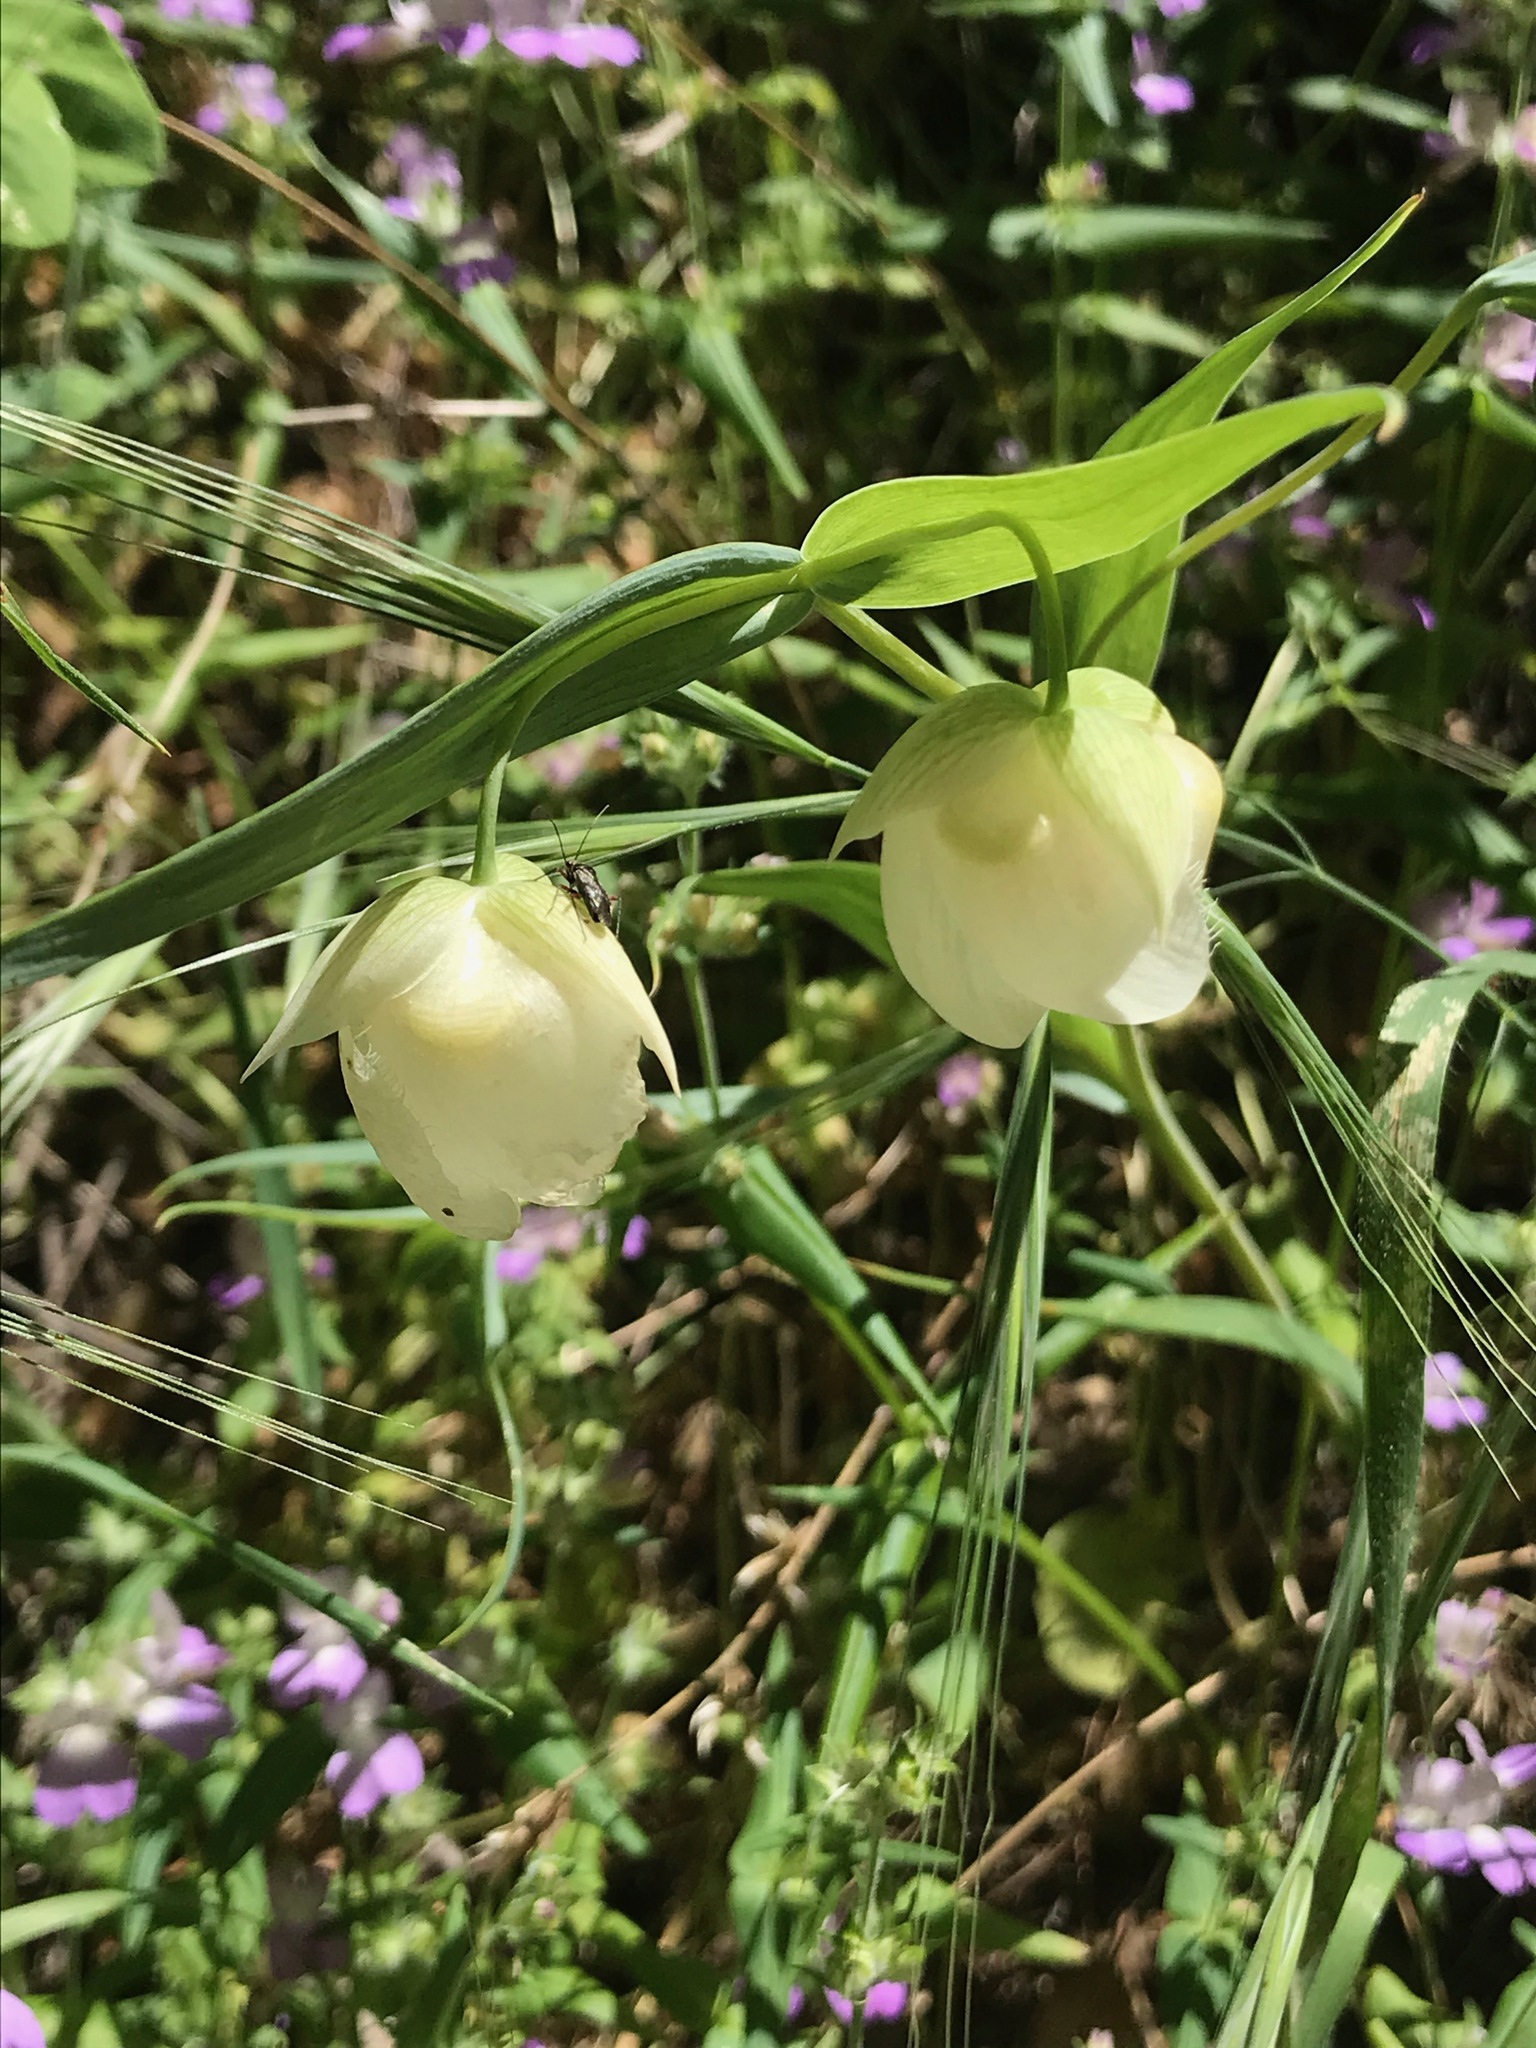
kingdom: Plantae
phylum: Tracheophyta
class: Liliopsida
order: Liliales
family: Liliaceae
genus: Calochortus
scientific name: Calochortus albus
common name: Fairy-lantern
